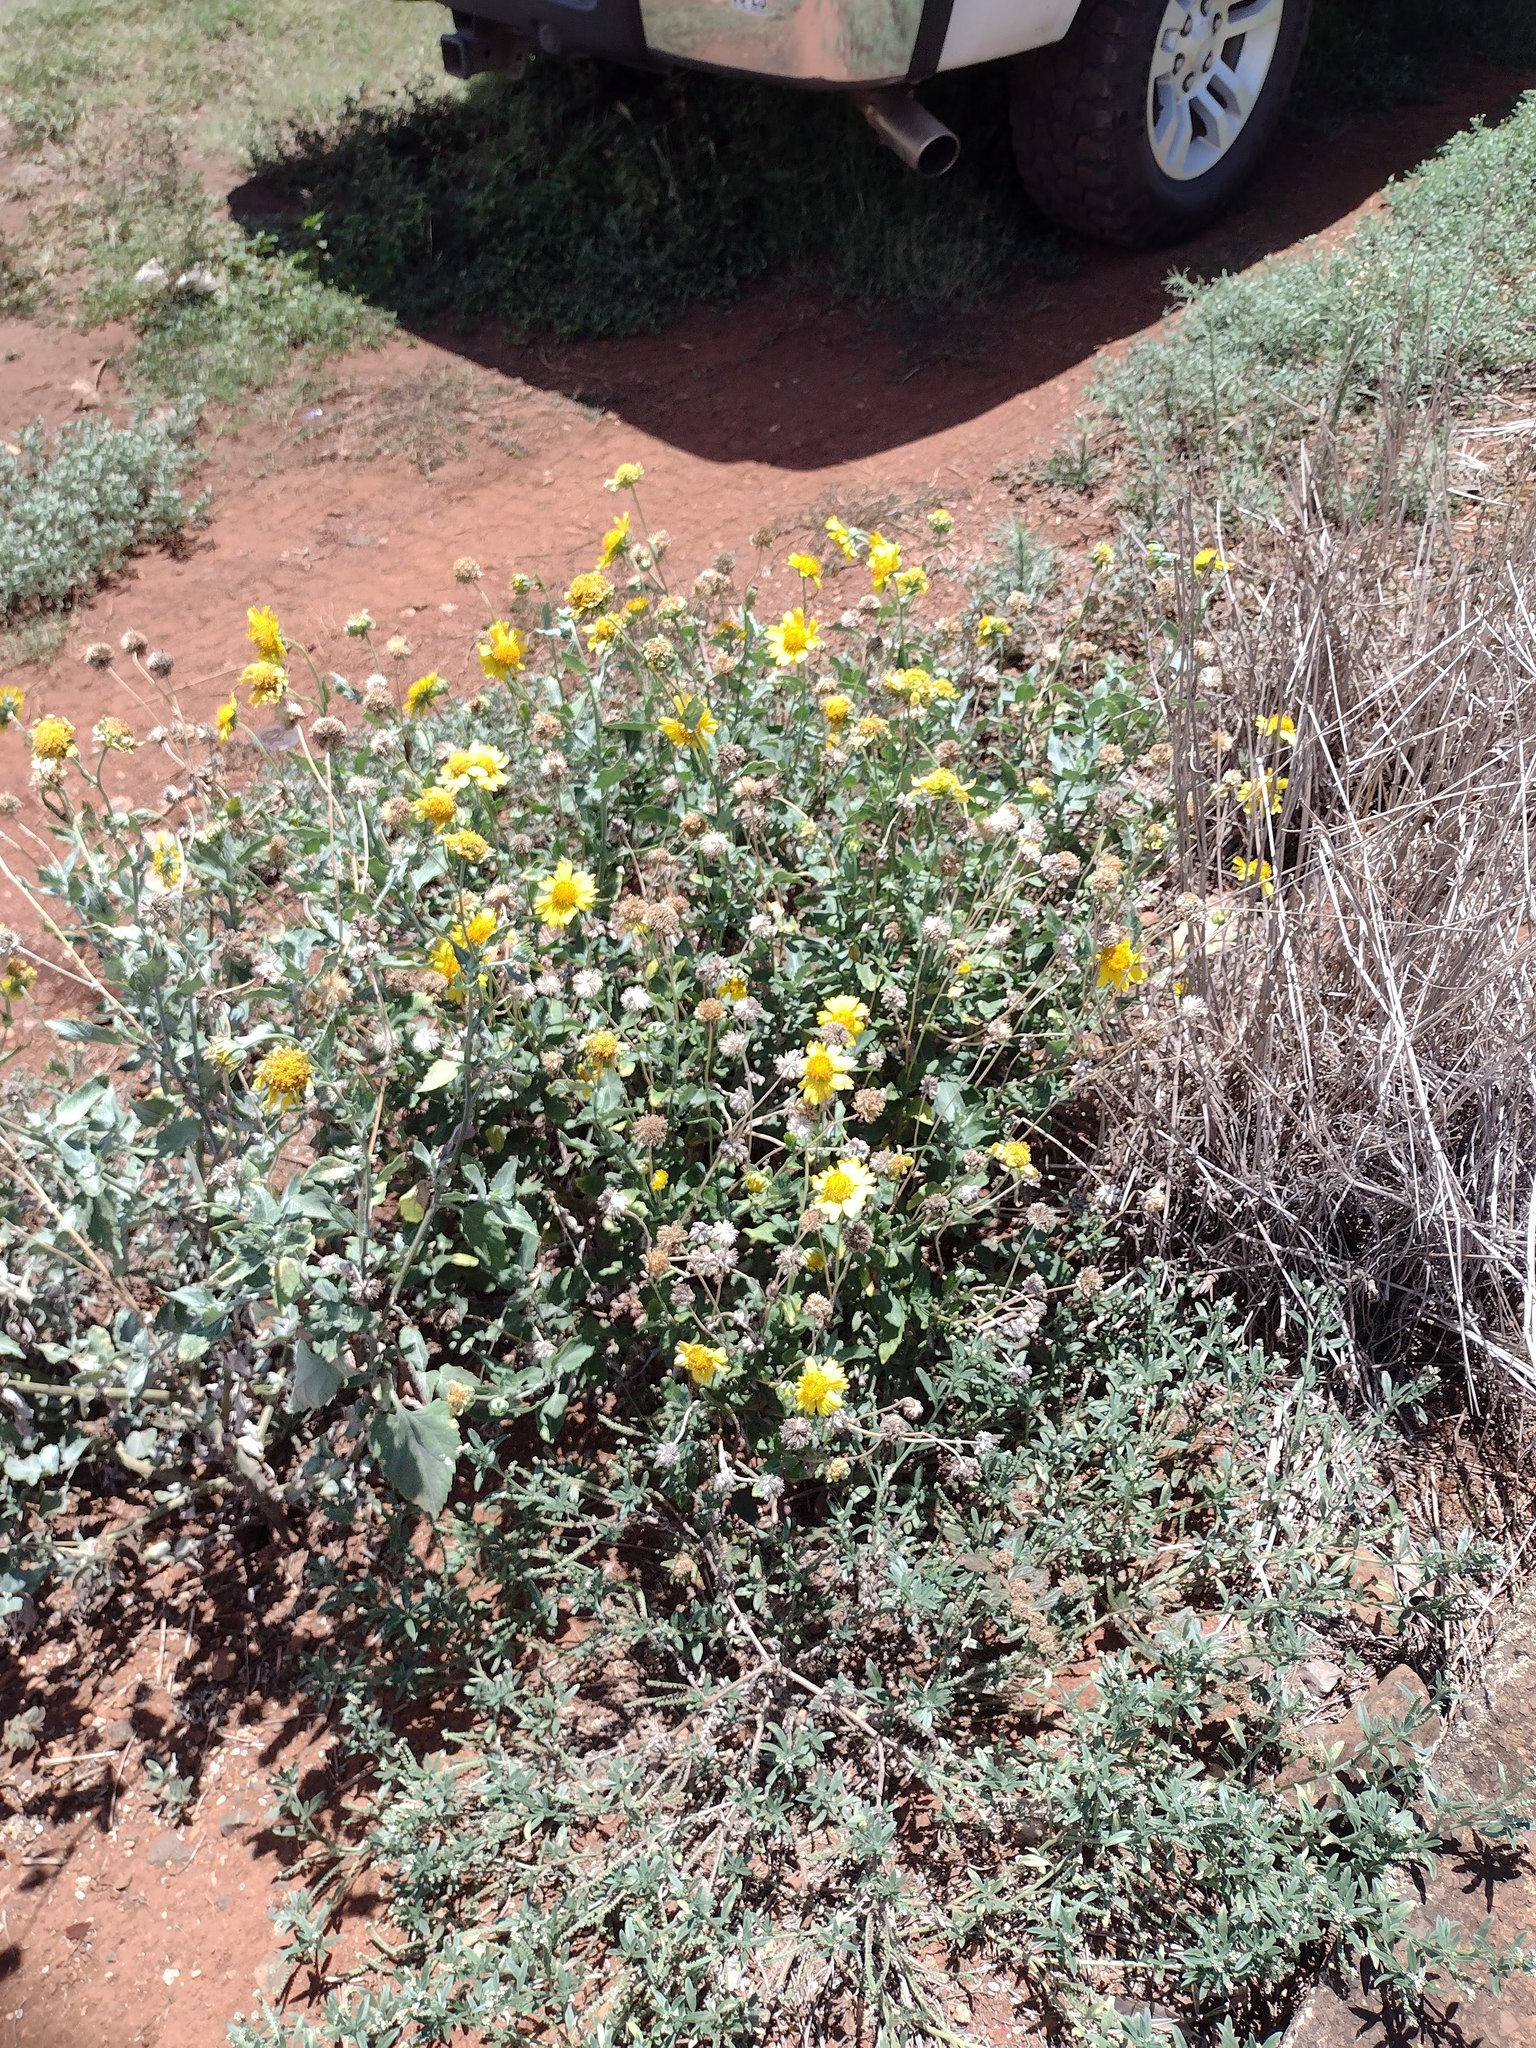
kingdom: Plantae
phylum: Tracheophyta
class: Magnoliopsida
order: Asterales
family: Asteraceae
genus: Verbesina
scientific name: Verbesina encelioides
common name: Golden crownbeard
